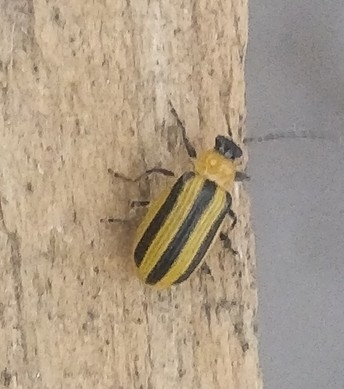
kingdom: Animalia
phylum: Arthropoda
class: Insecta
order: Coleoptera
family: Chrysomelidae
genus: Acalymma
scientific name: Acalymma vittatum
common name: Striped cucumber beetle
